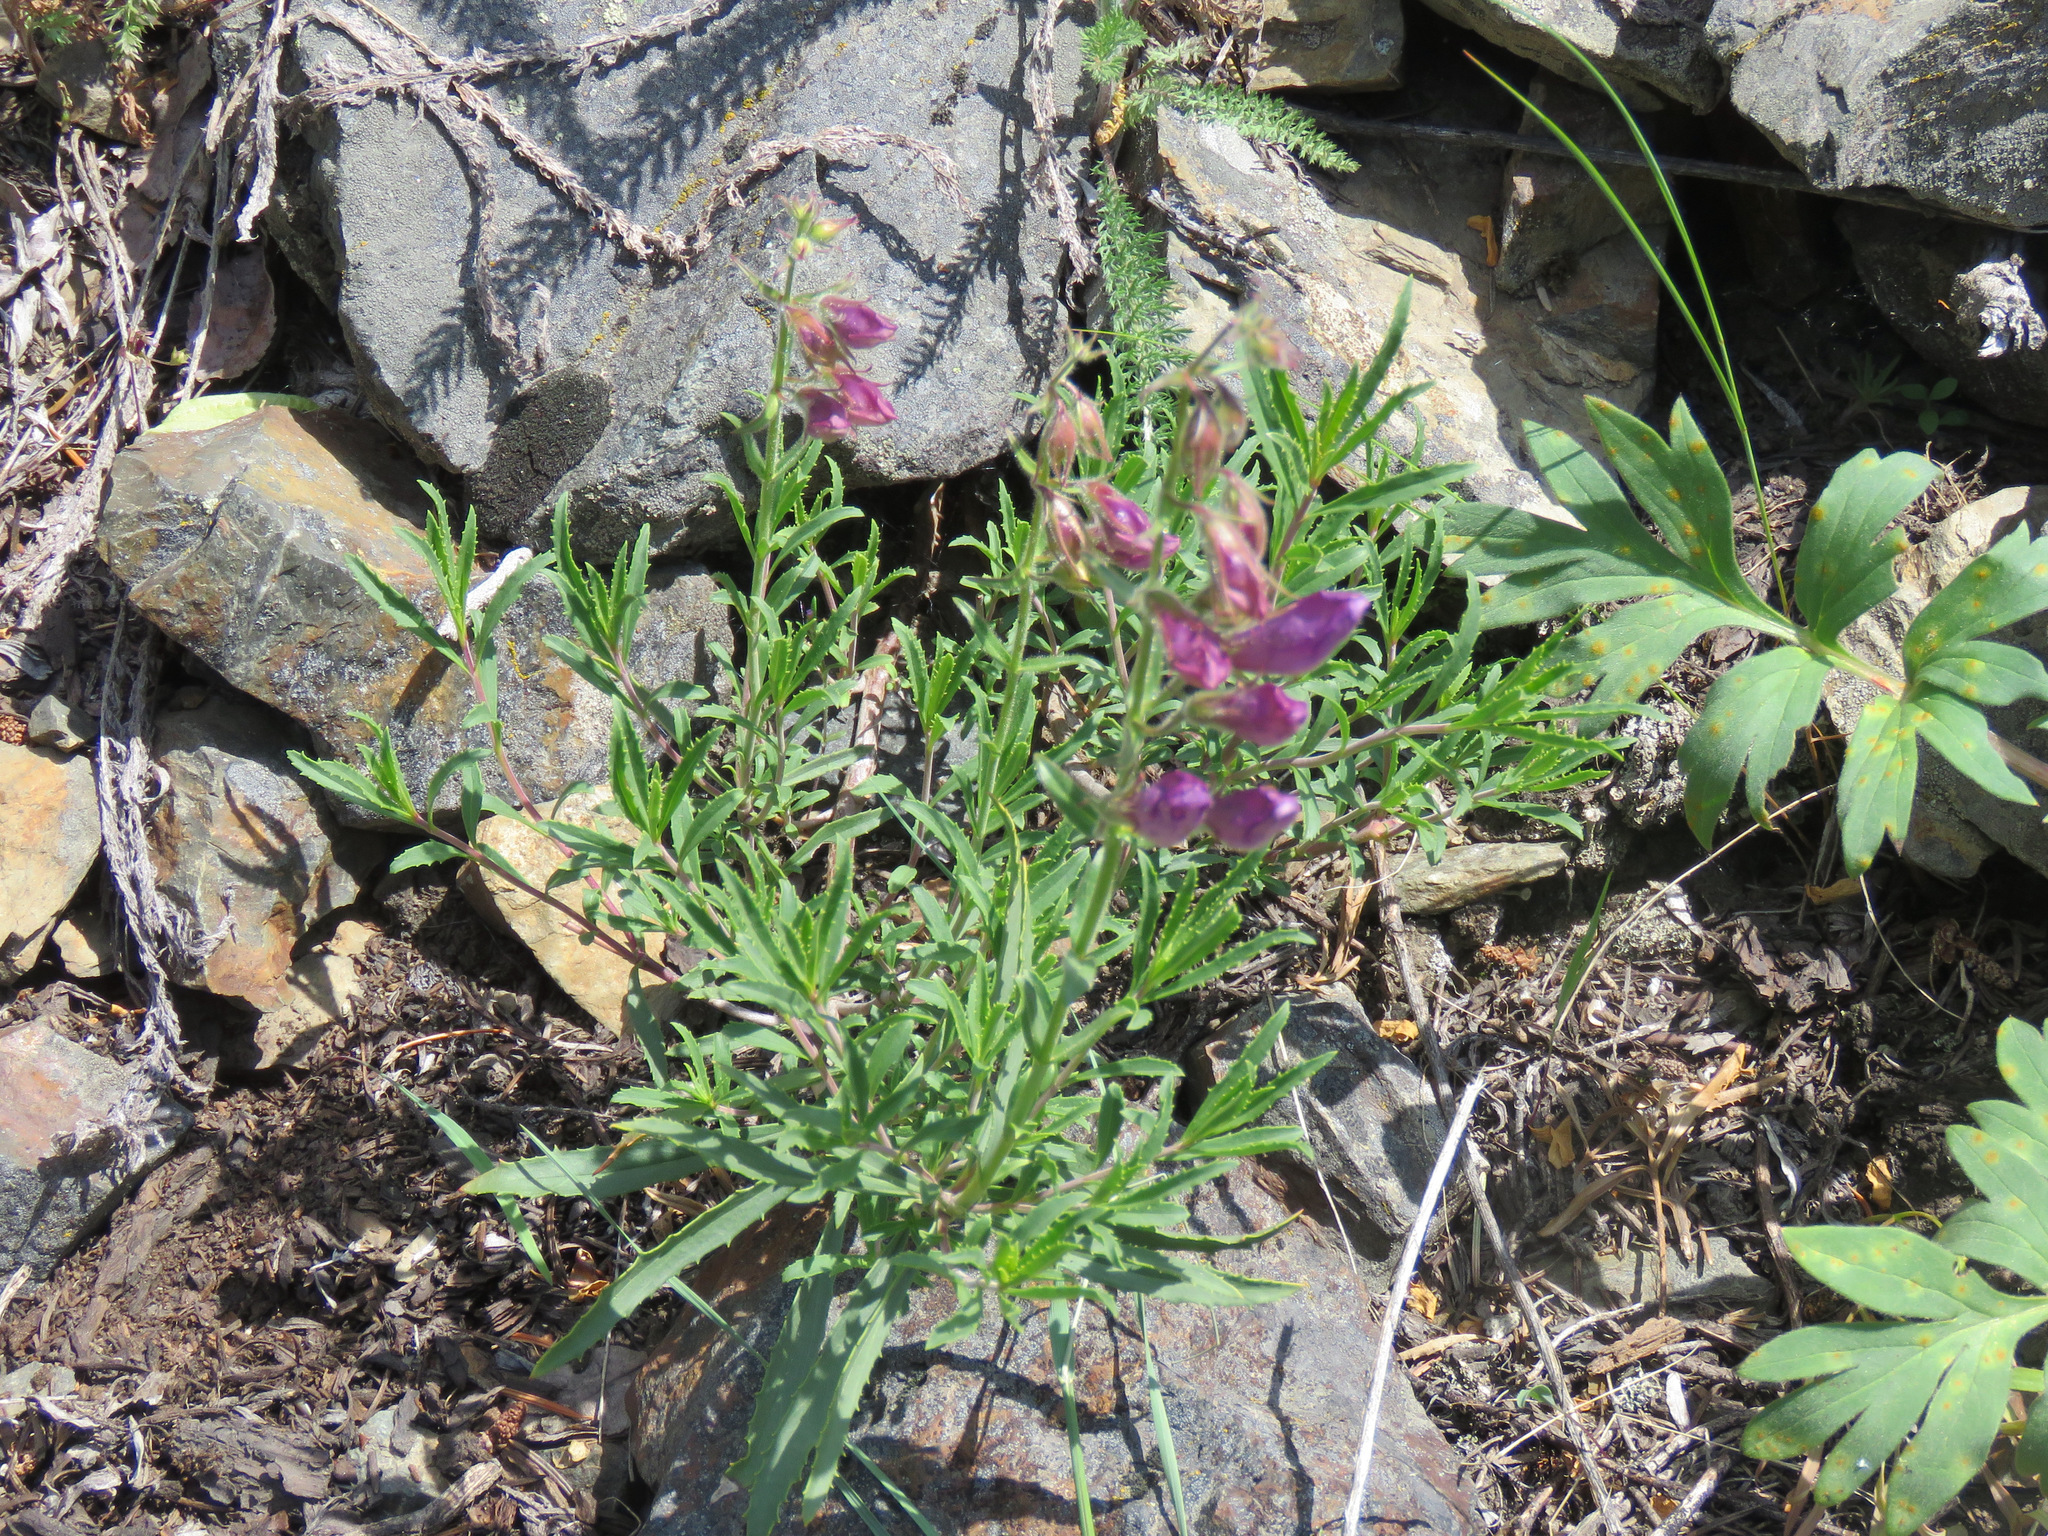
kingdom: Plantae
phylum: Tracheophyta
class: Magnoliopsida
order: Lamiales
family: Plantaginaceae
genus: Penstemon
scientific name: Penstemon fruticosus
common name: Bush penstemon
